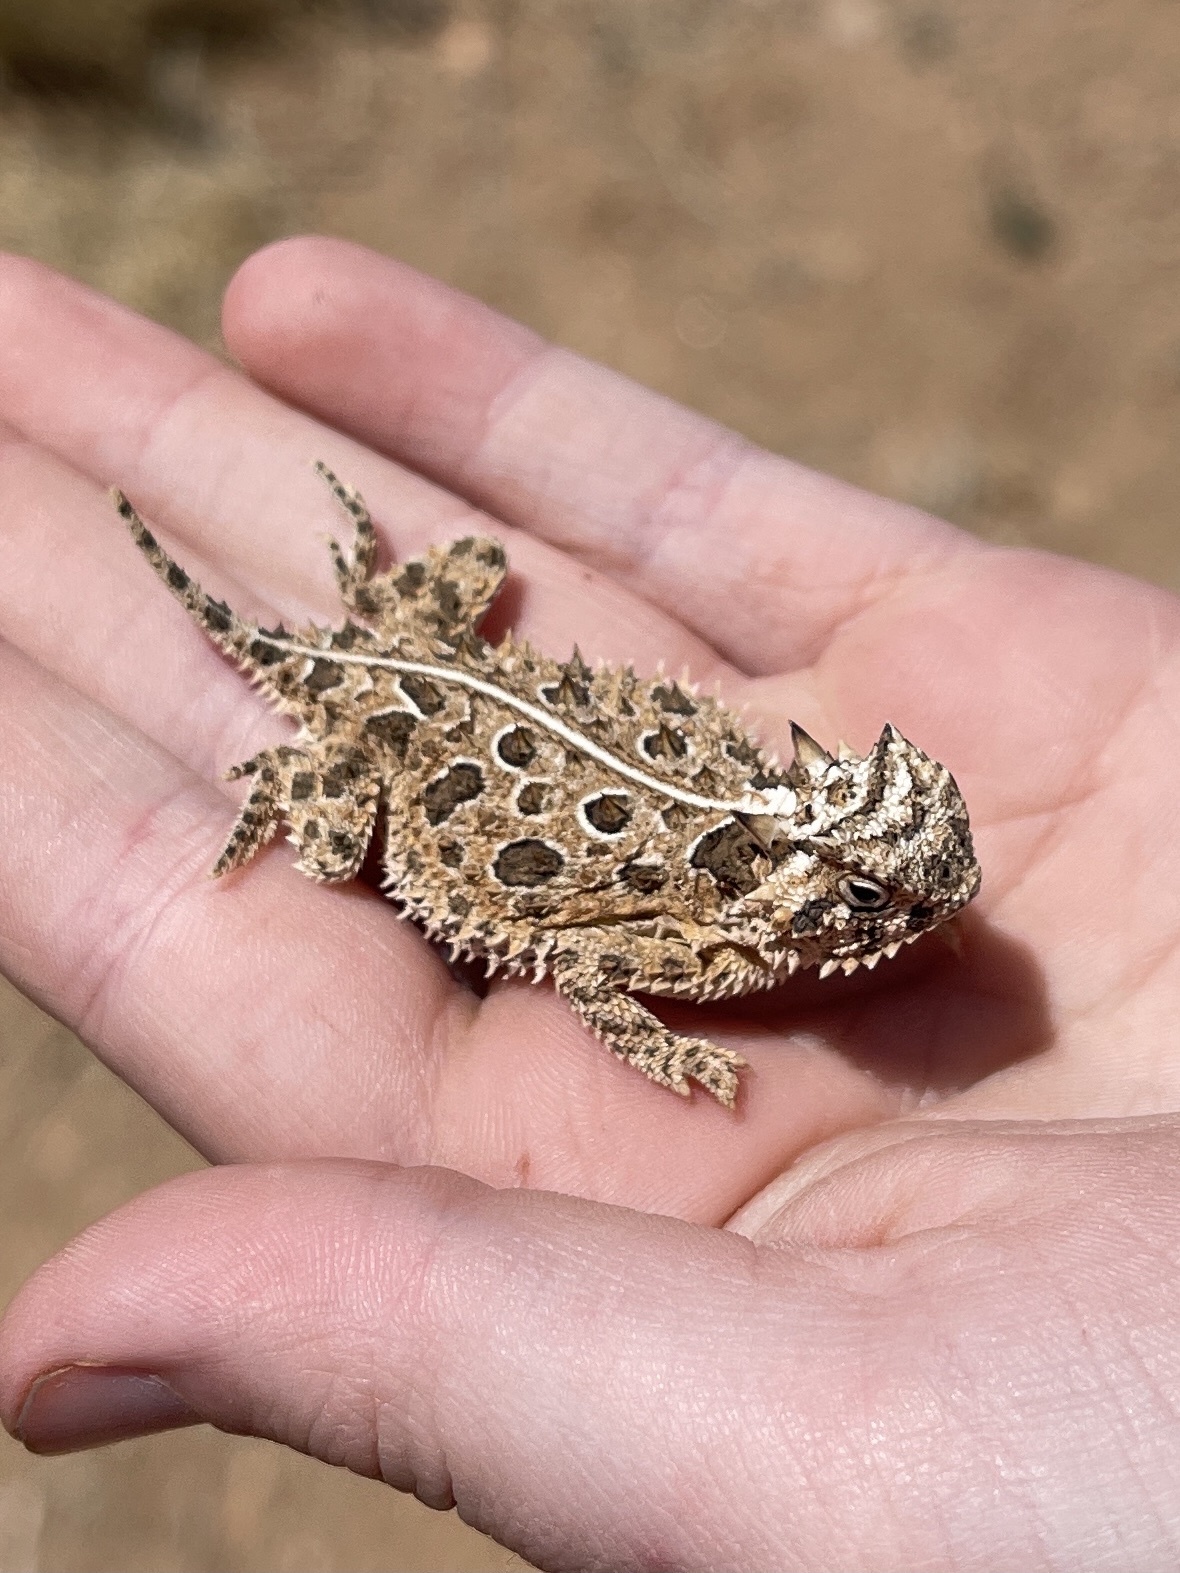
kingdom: Animalia
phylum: Chordata
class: Squamata
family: Phrynosomatidae
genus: Phrynosoma
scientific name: Phrynosoma cornutum
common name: Texas horned lizard
